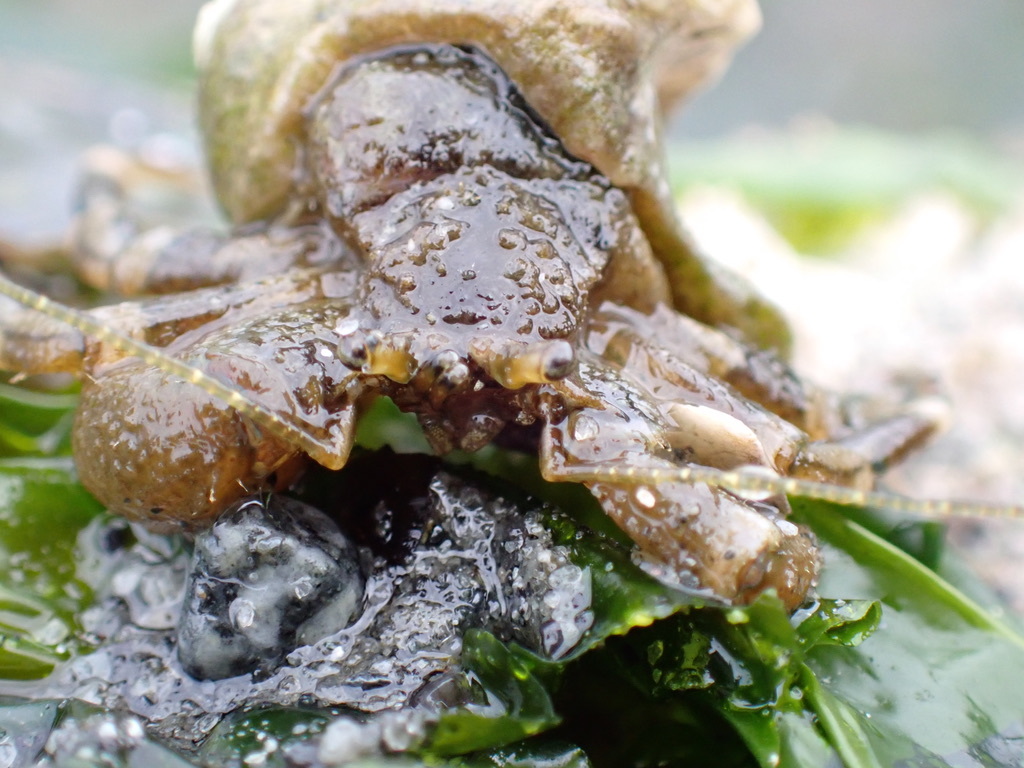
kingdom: Animalia
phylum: Arthropoda
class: Malacostraca
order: Decapoda
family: Paguridae
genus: Pagurus
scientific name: Pagurus hirsutiusculus
